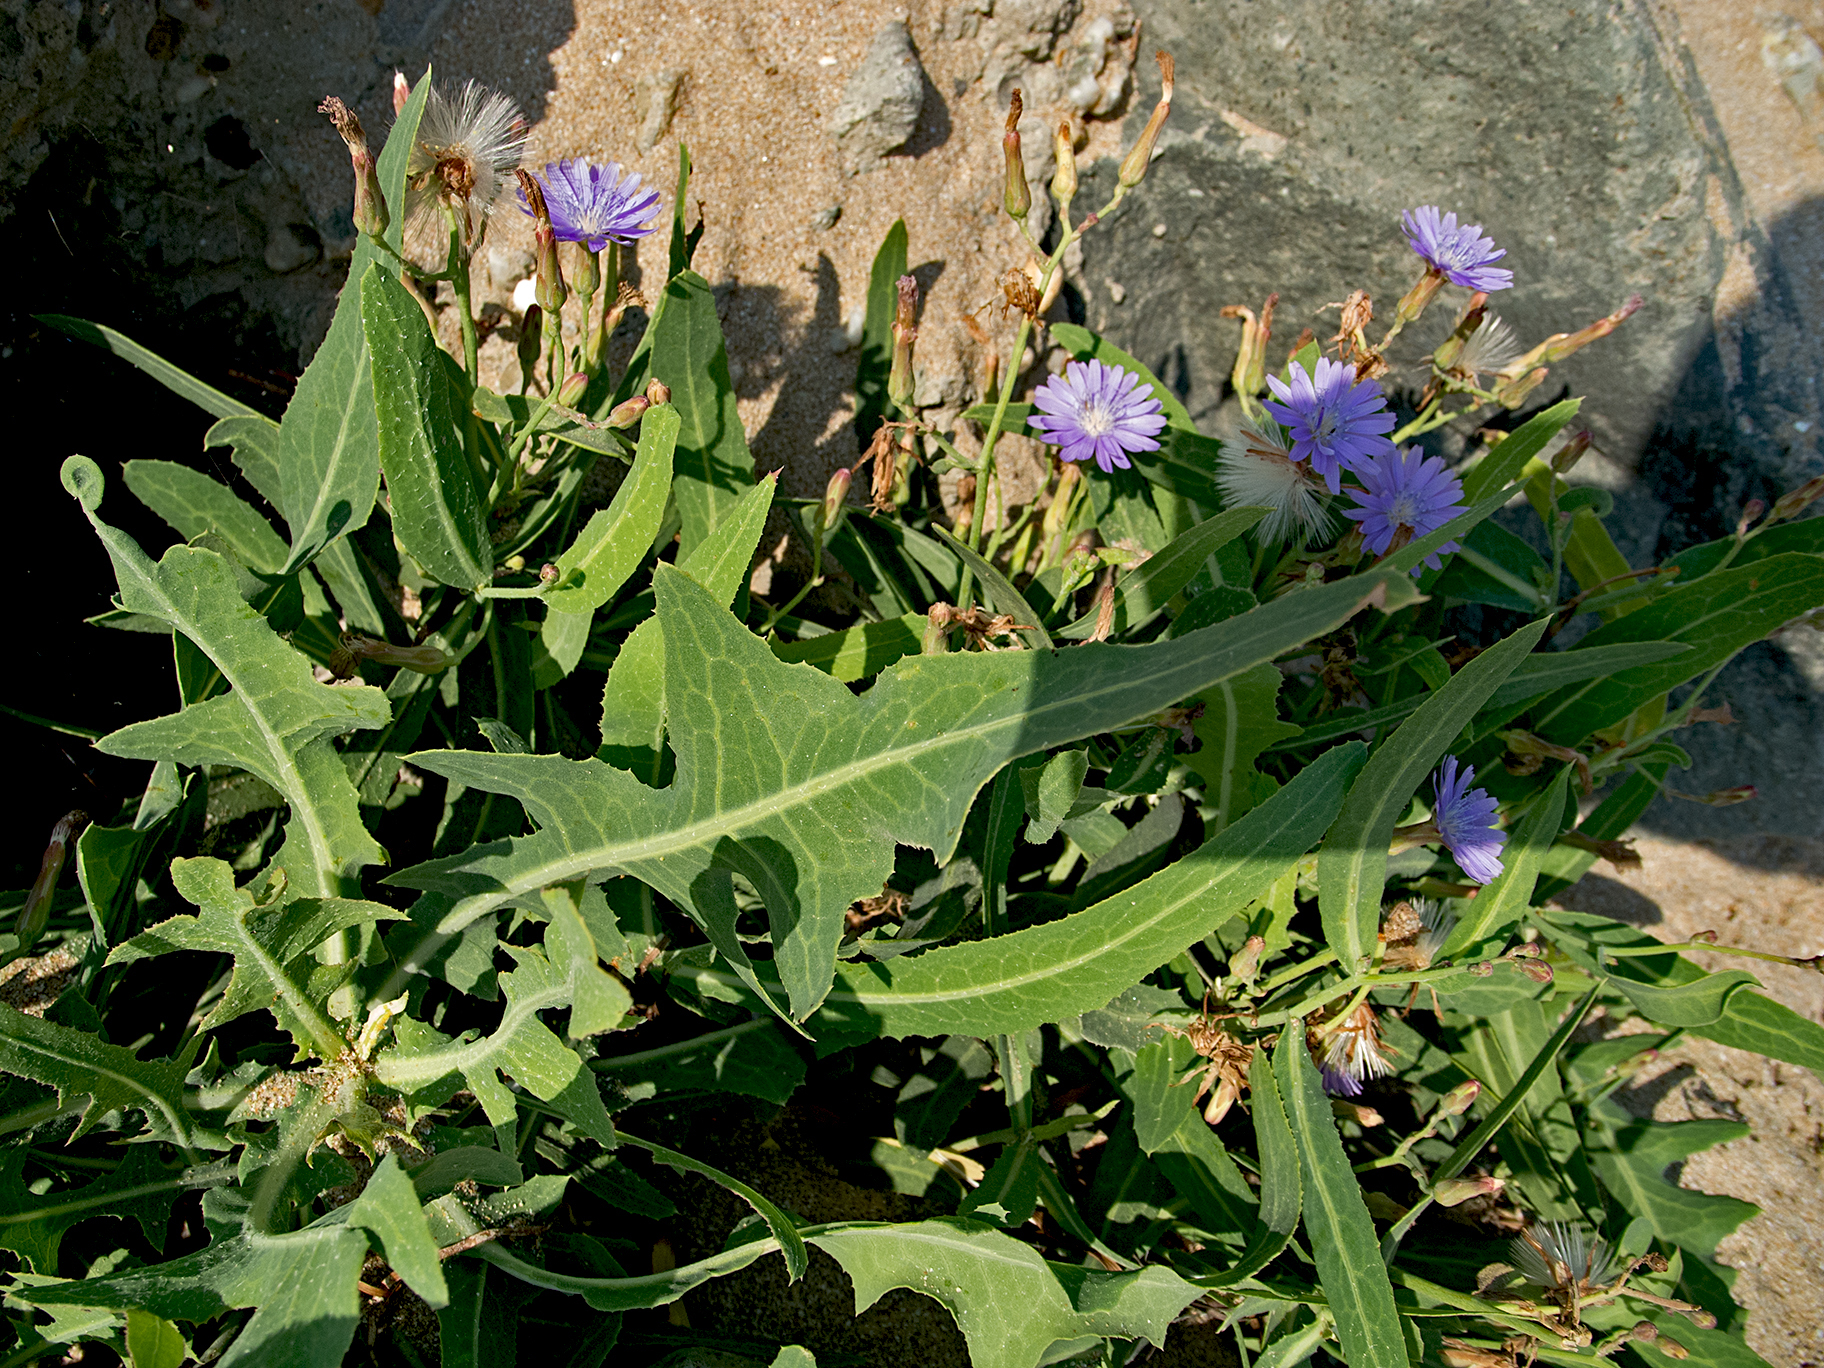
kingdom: Plantae
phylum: Tracheophyta
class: Magnoliopsida
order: Asterales
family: Asteraceae
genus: Lactuca
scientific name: Lactuca tatarica
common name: Blue lettuce
